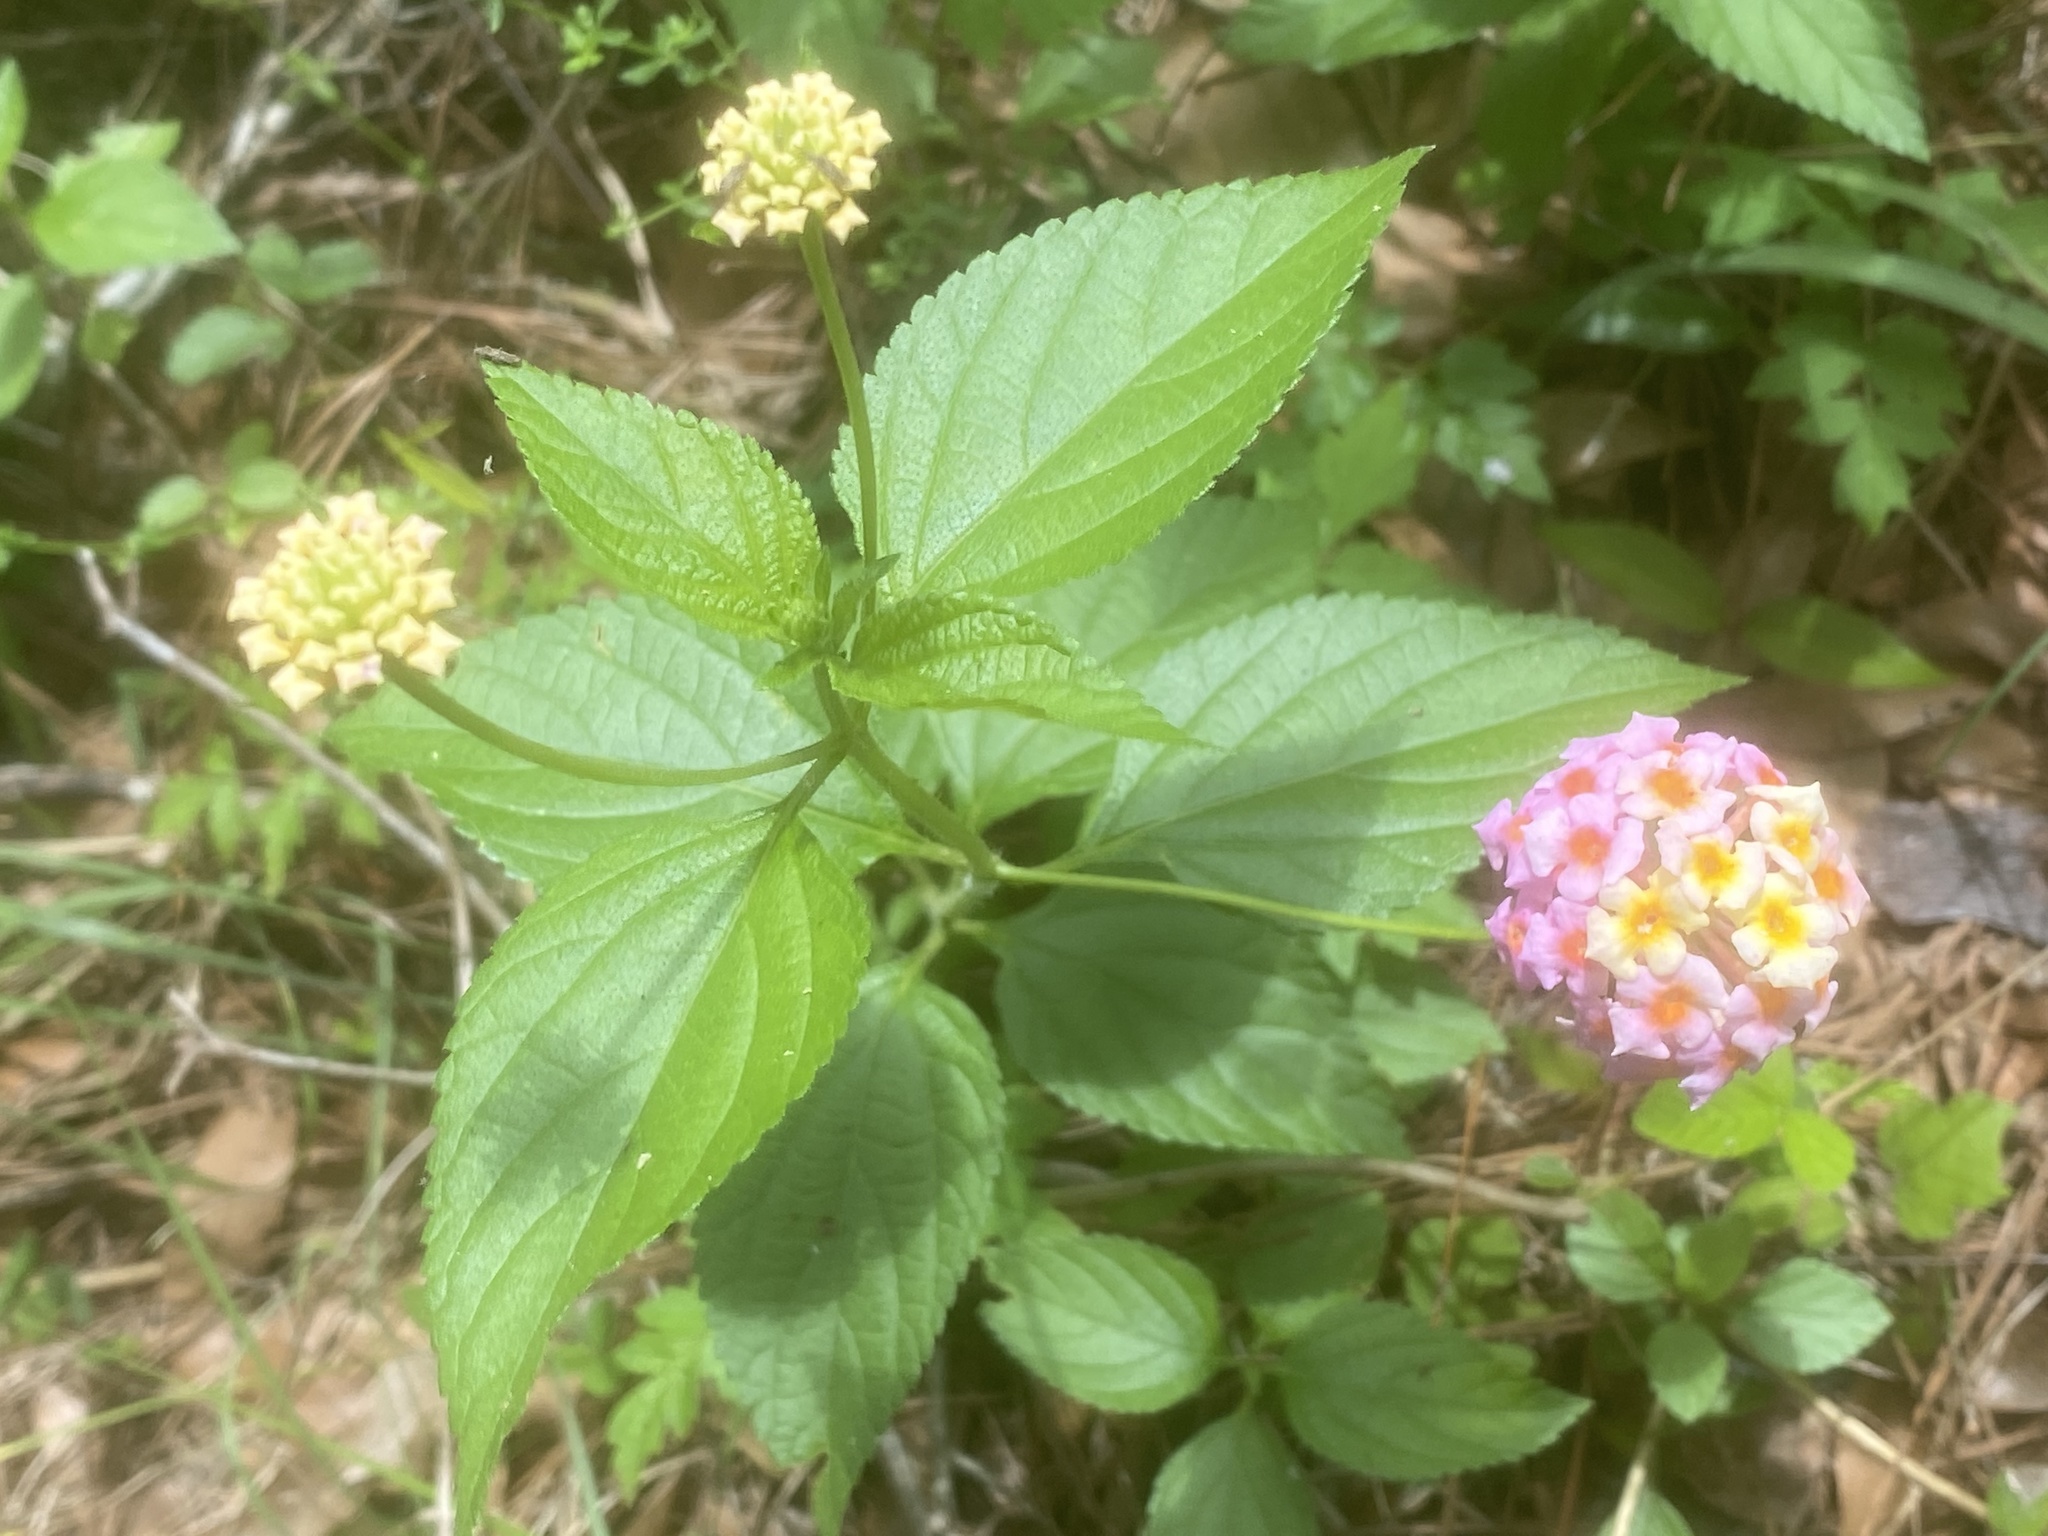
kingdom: Plantae
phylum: Tracheophyta
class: Magnoliopsida
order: Lamiales
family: Verbenaceae
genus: Lantana
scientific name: Lantana strigocamara
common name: Lantana
